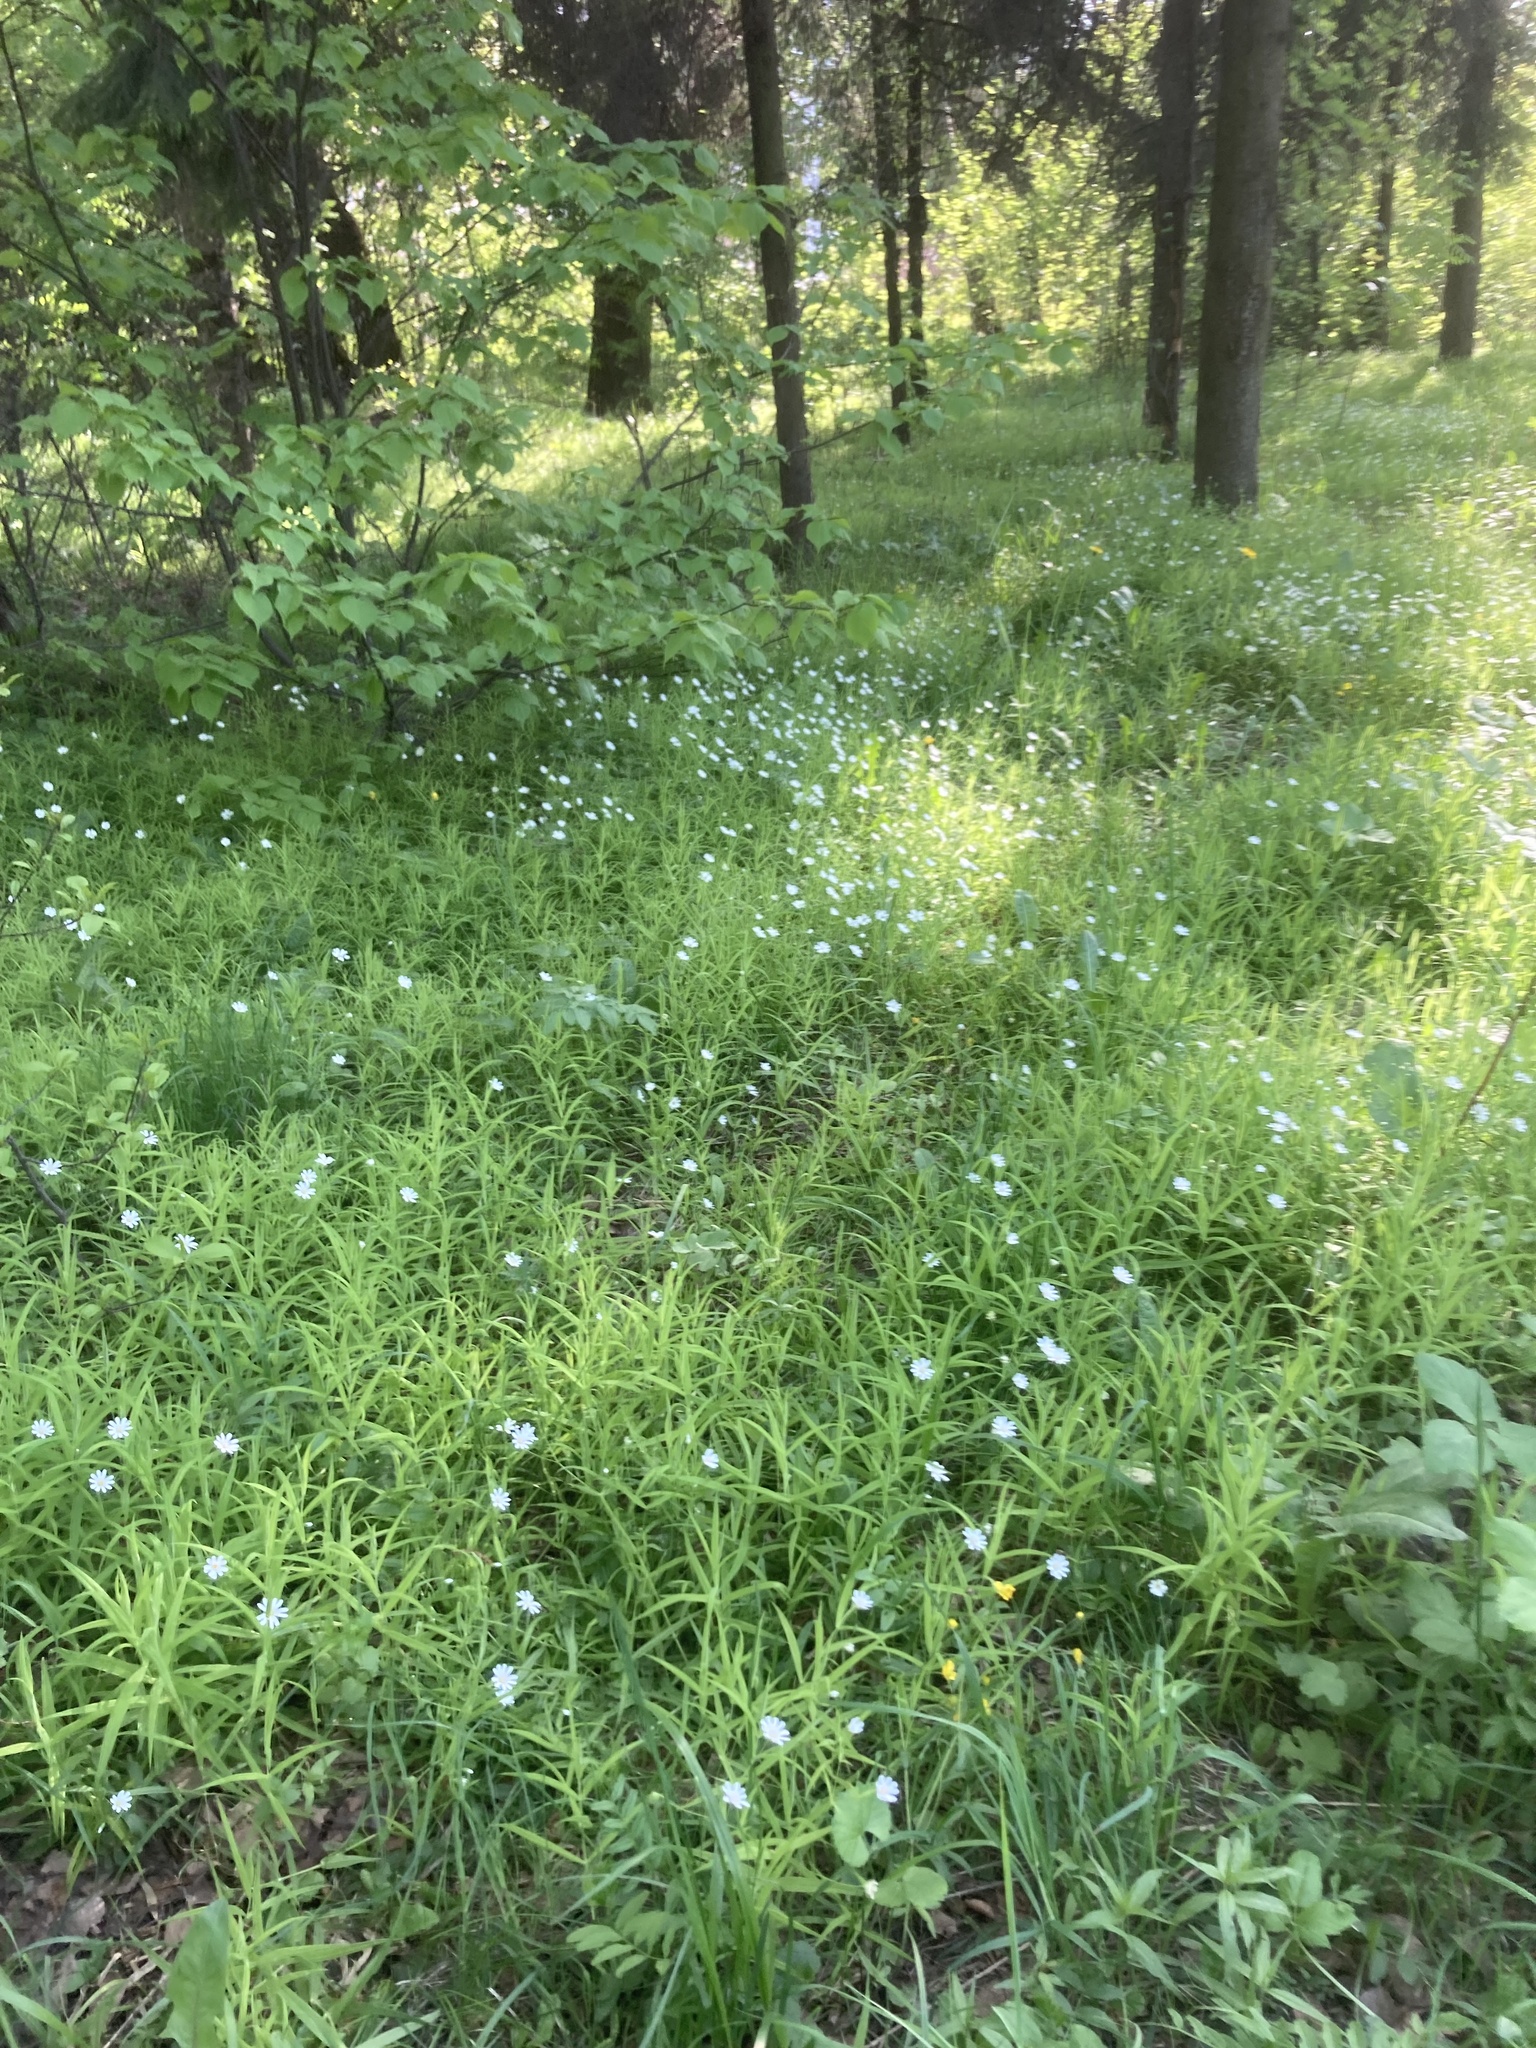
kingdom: Plantae
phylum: Tracheophyta
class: Magnoliopsida
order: Caryophyllales
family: Caryophyllaceae
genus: Rabelera
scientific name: Rabelera holostea
